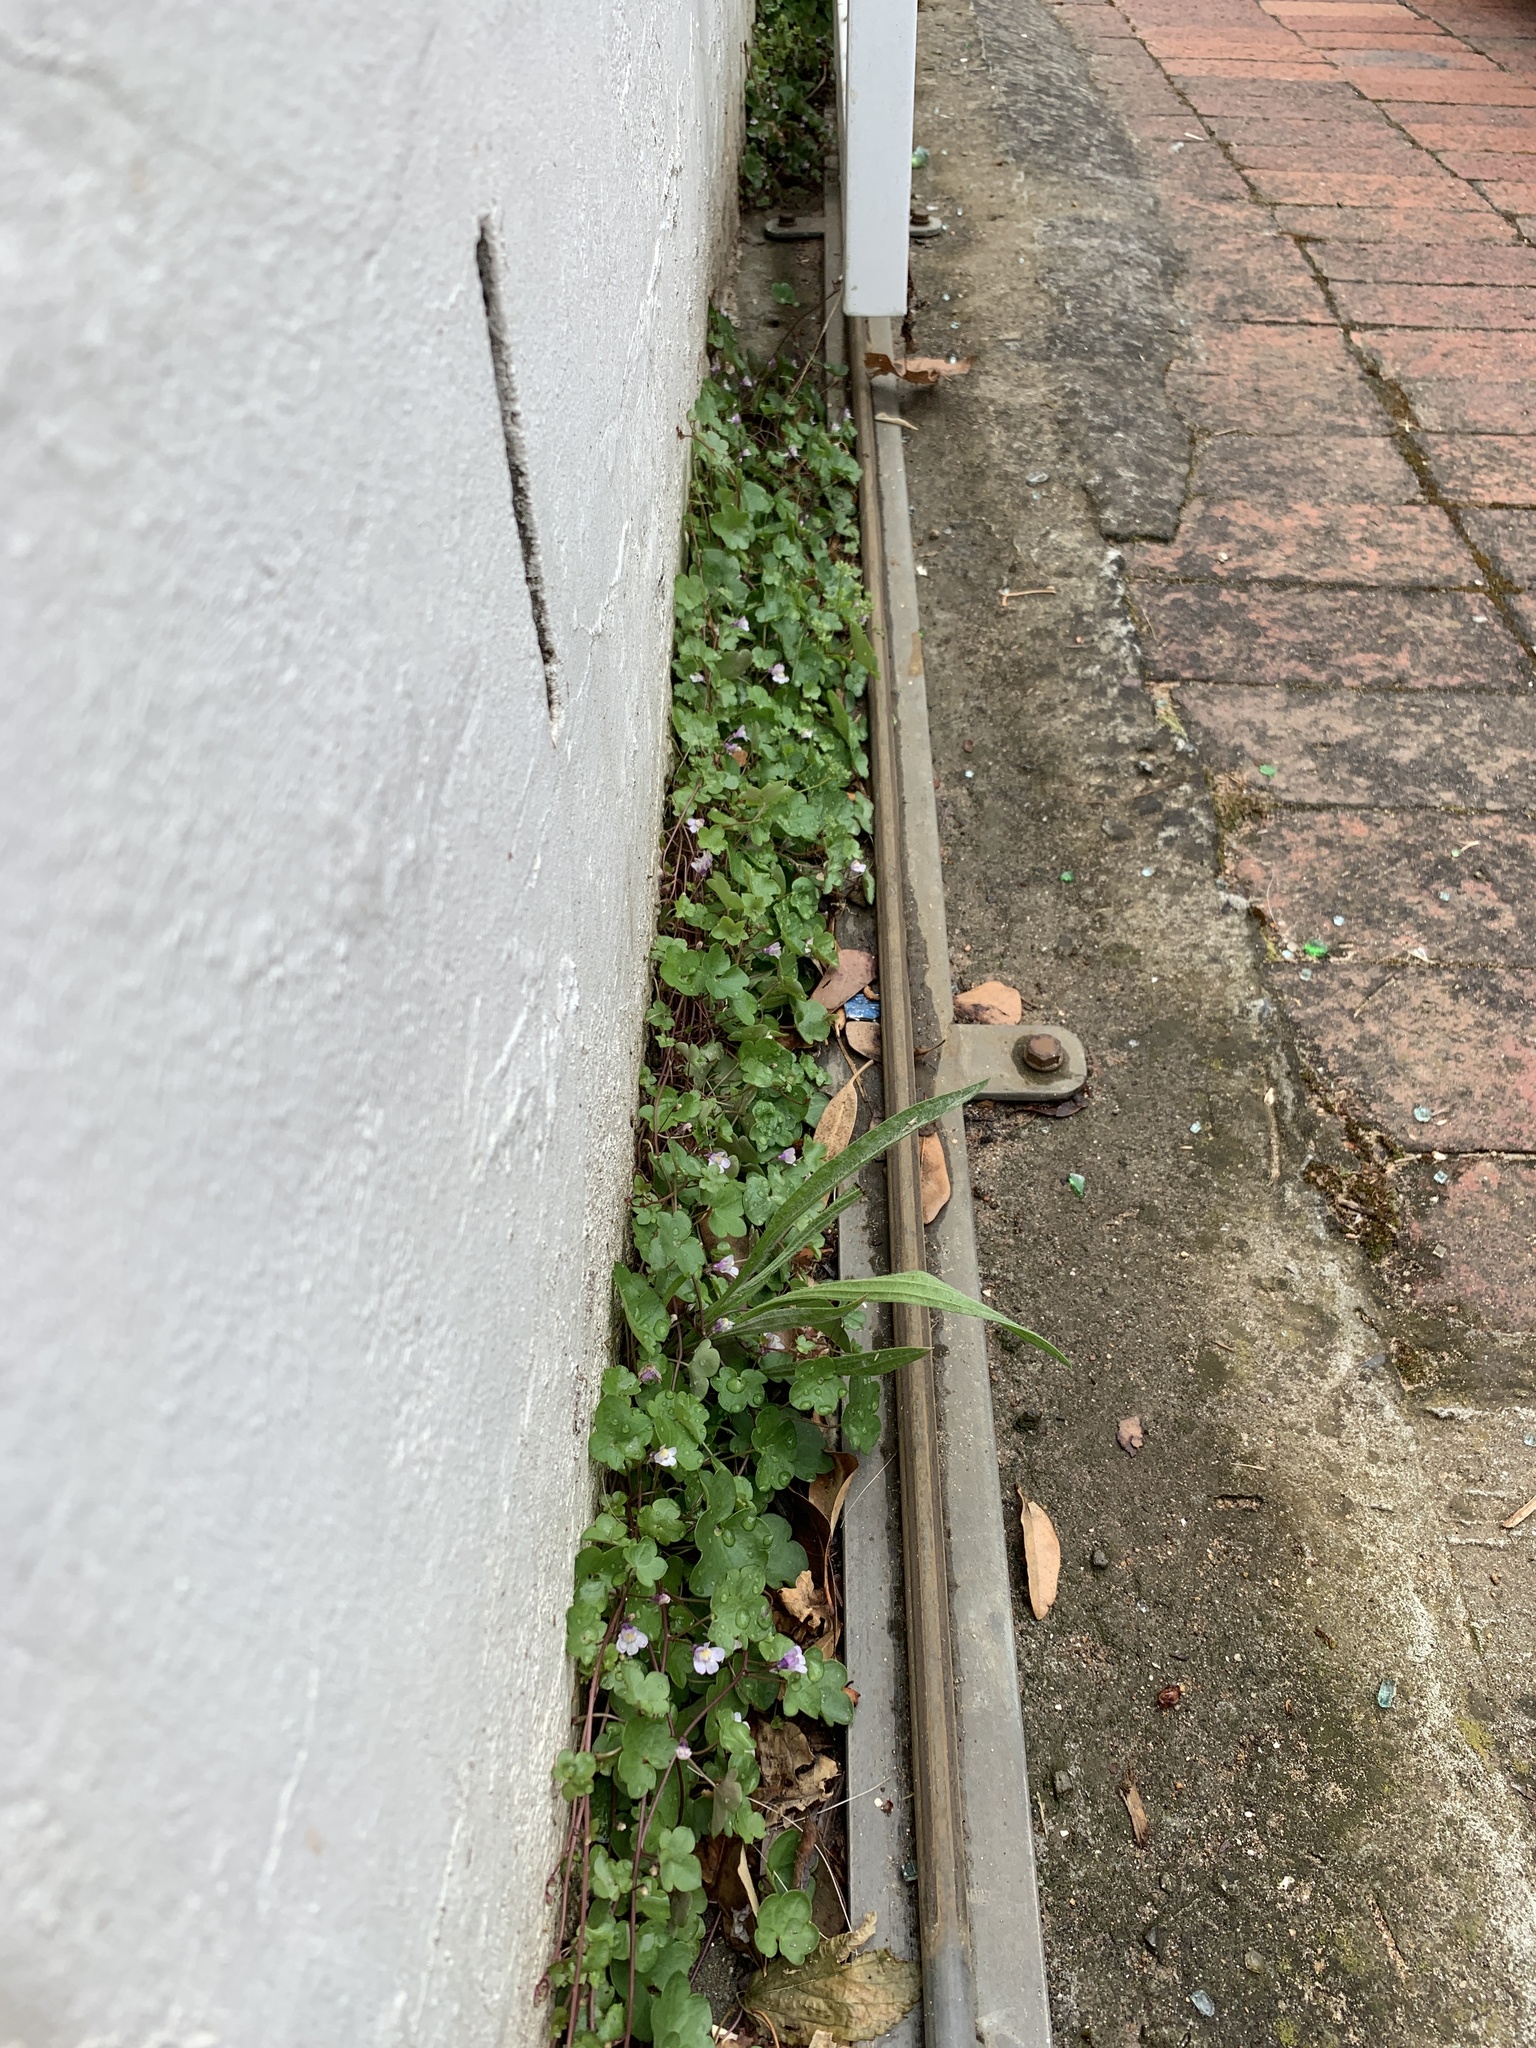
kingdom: Plantae
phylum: Tracheophyta
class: Magnoliopsida
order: Lamiales
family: Plantaginaceae
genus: Cymbalaria
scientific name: Cymbalaria muralis
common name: Ivy-leaved toadflax
